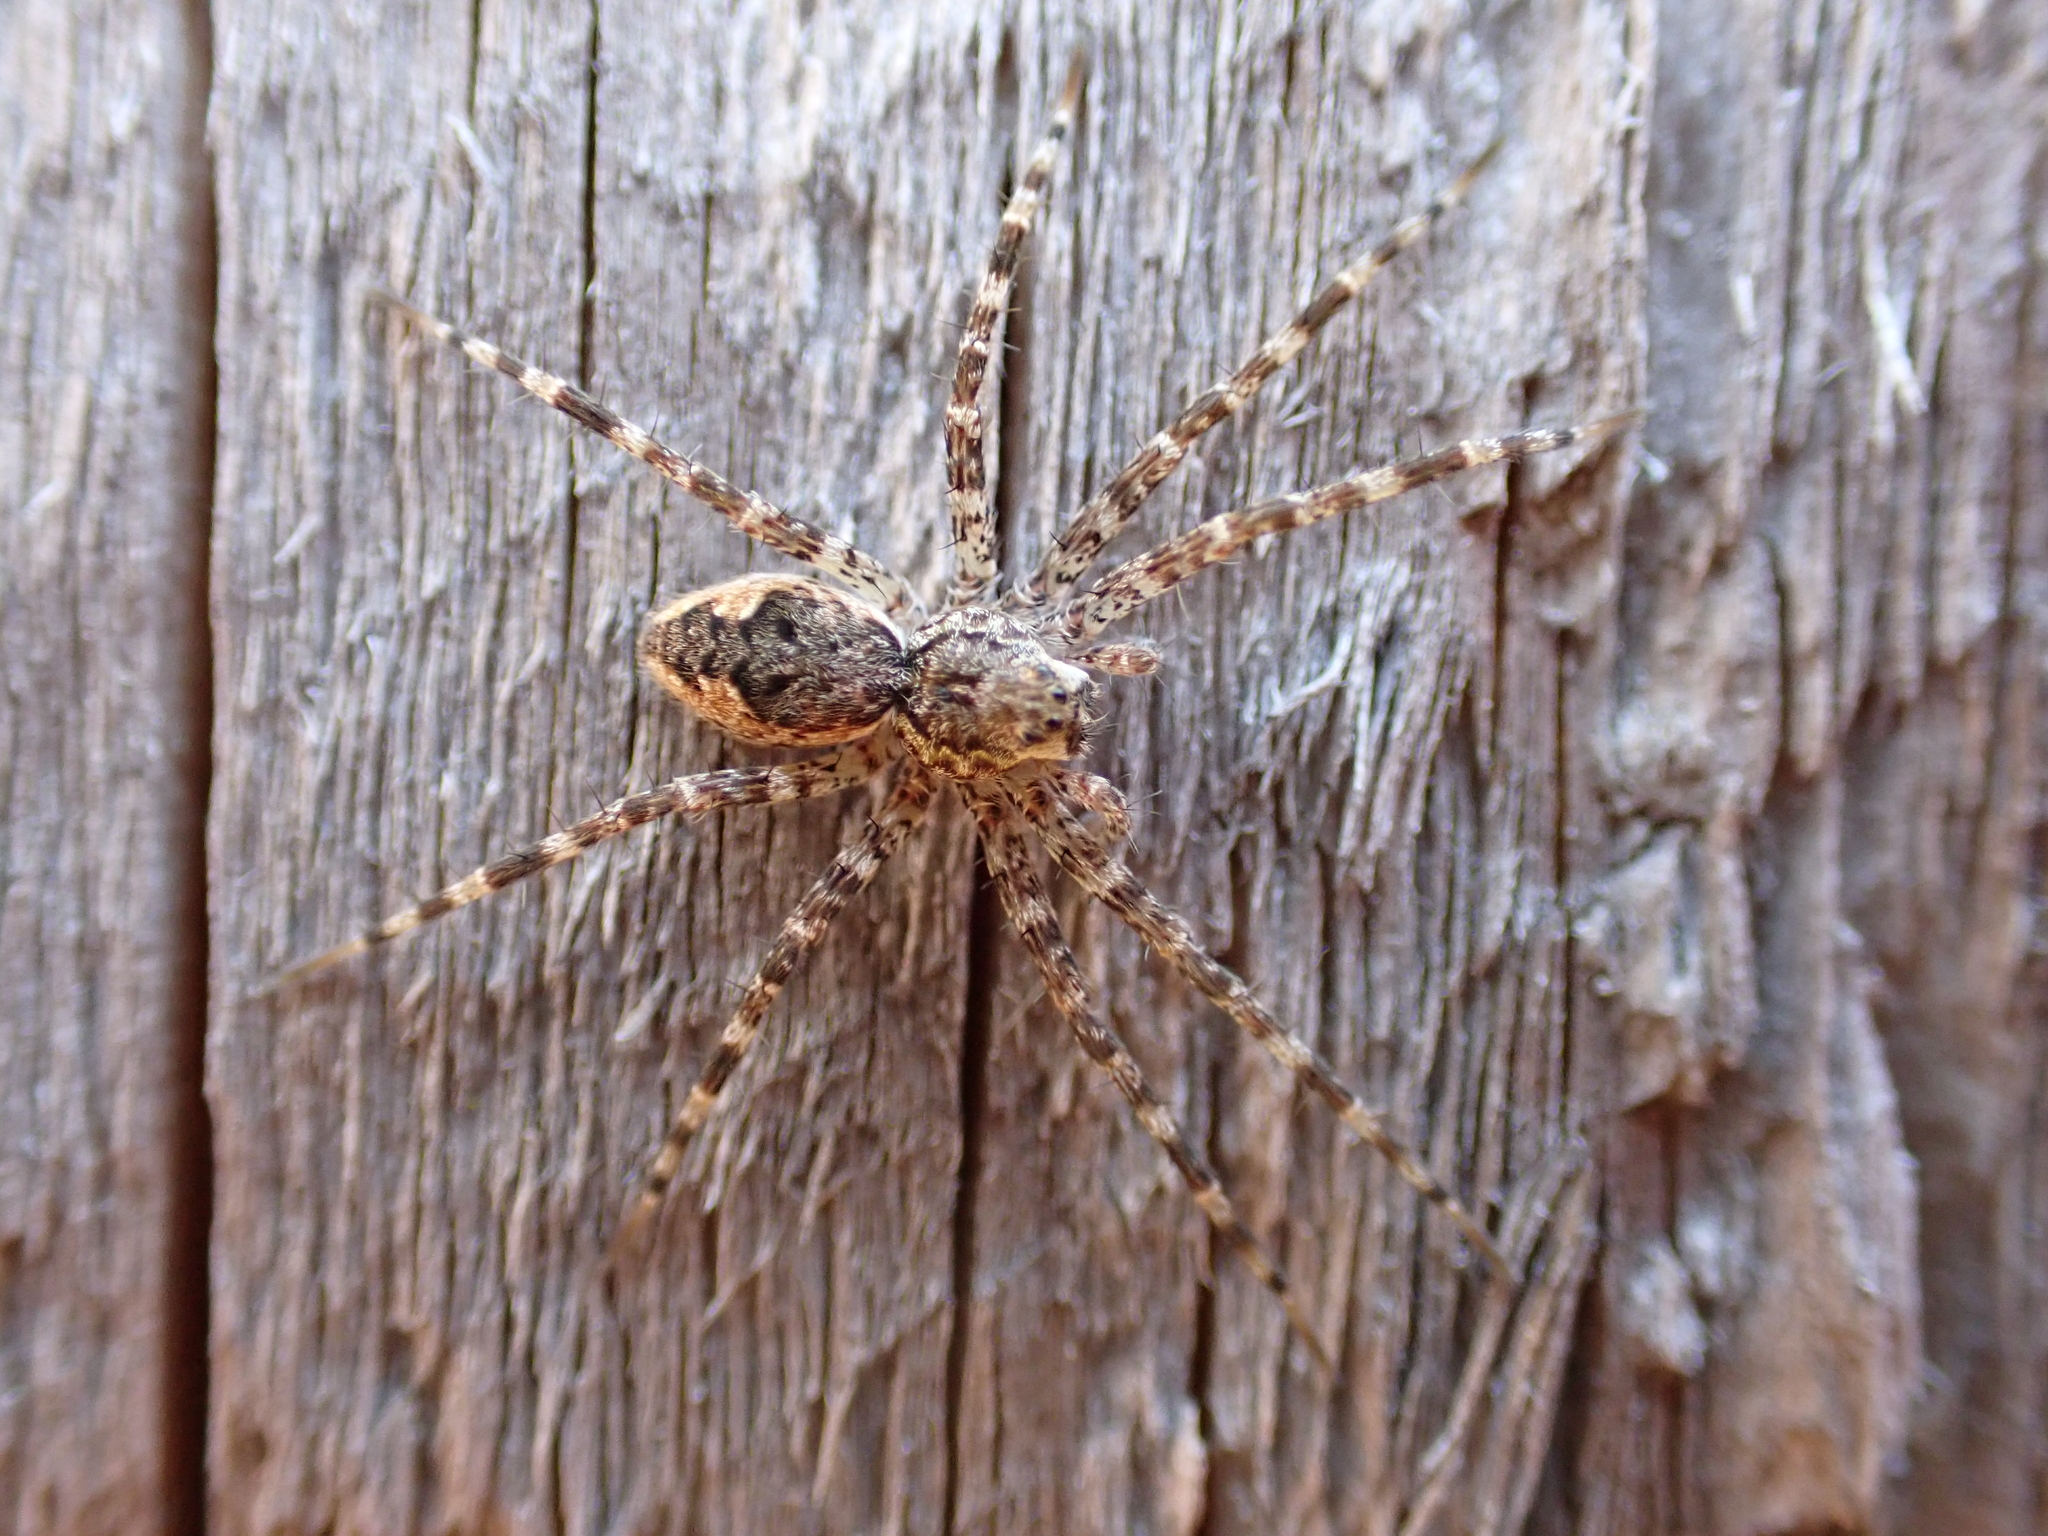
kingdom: Animalia
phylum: Arthropoda
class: Arachnida
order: Araneae
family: Pisauridae
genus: Dolomedes
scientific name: Dolomedes tenebrosus
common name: Dark fishing spider
